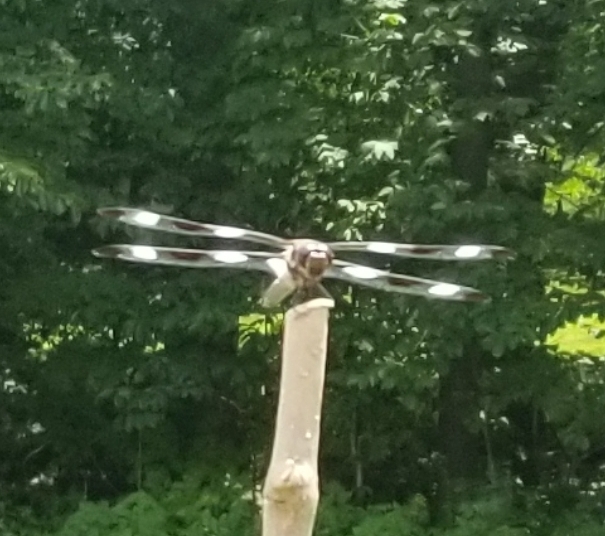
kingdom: Animalia
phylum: Arthropoda
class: Insecta
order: Odonata
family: Libellulidae
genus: Libellula
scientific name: Libellula pulchella
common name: Twelve-spotted skimmer
